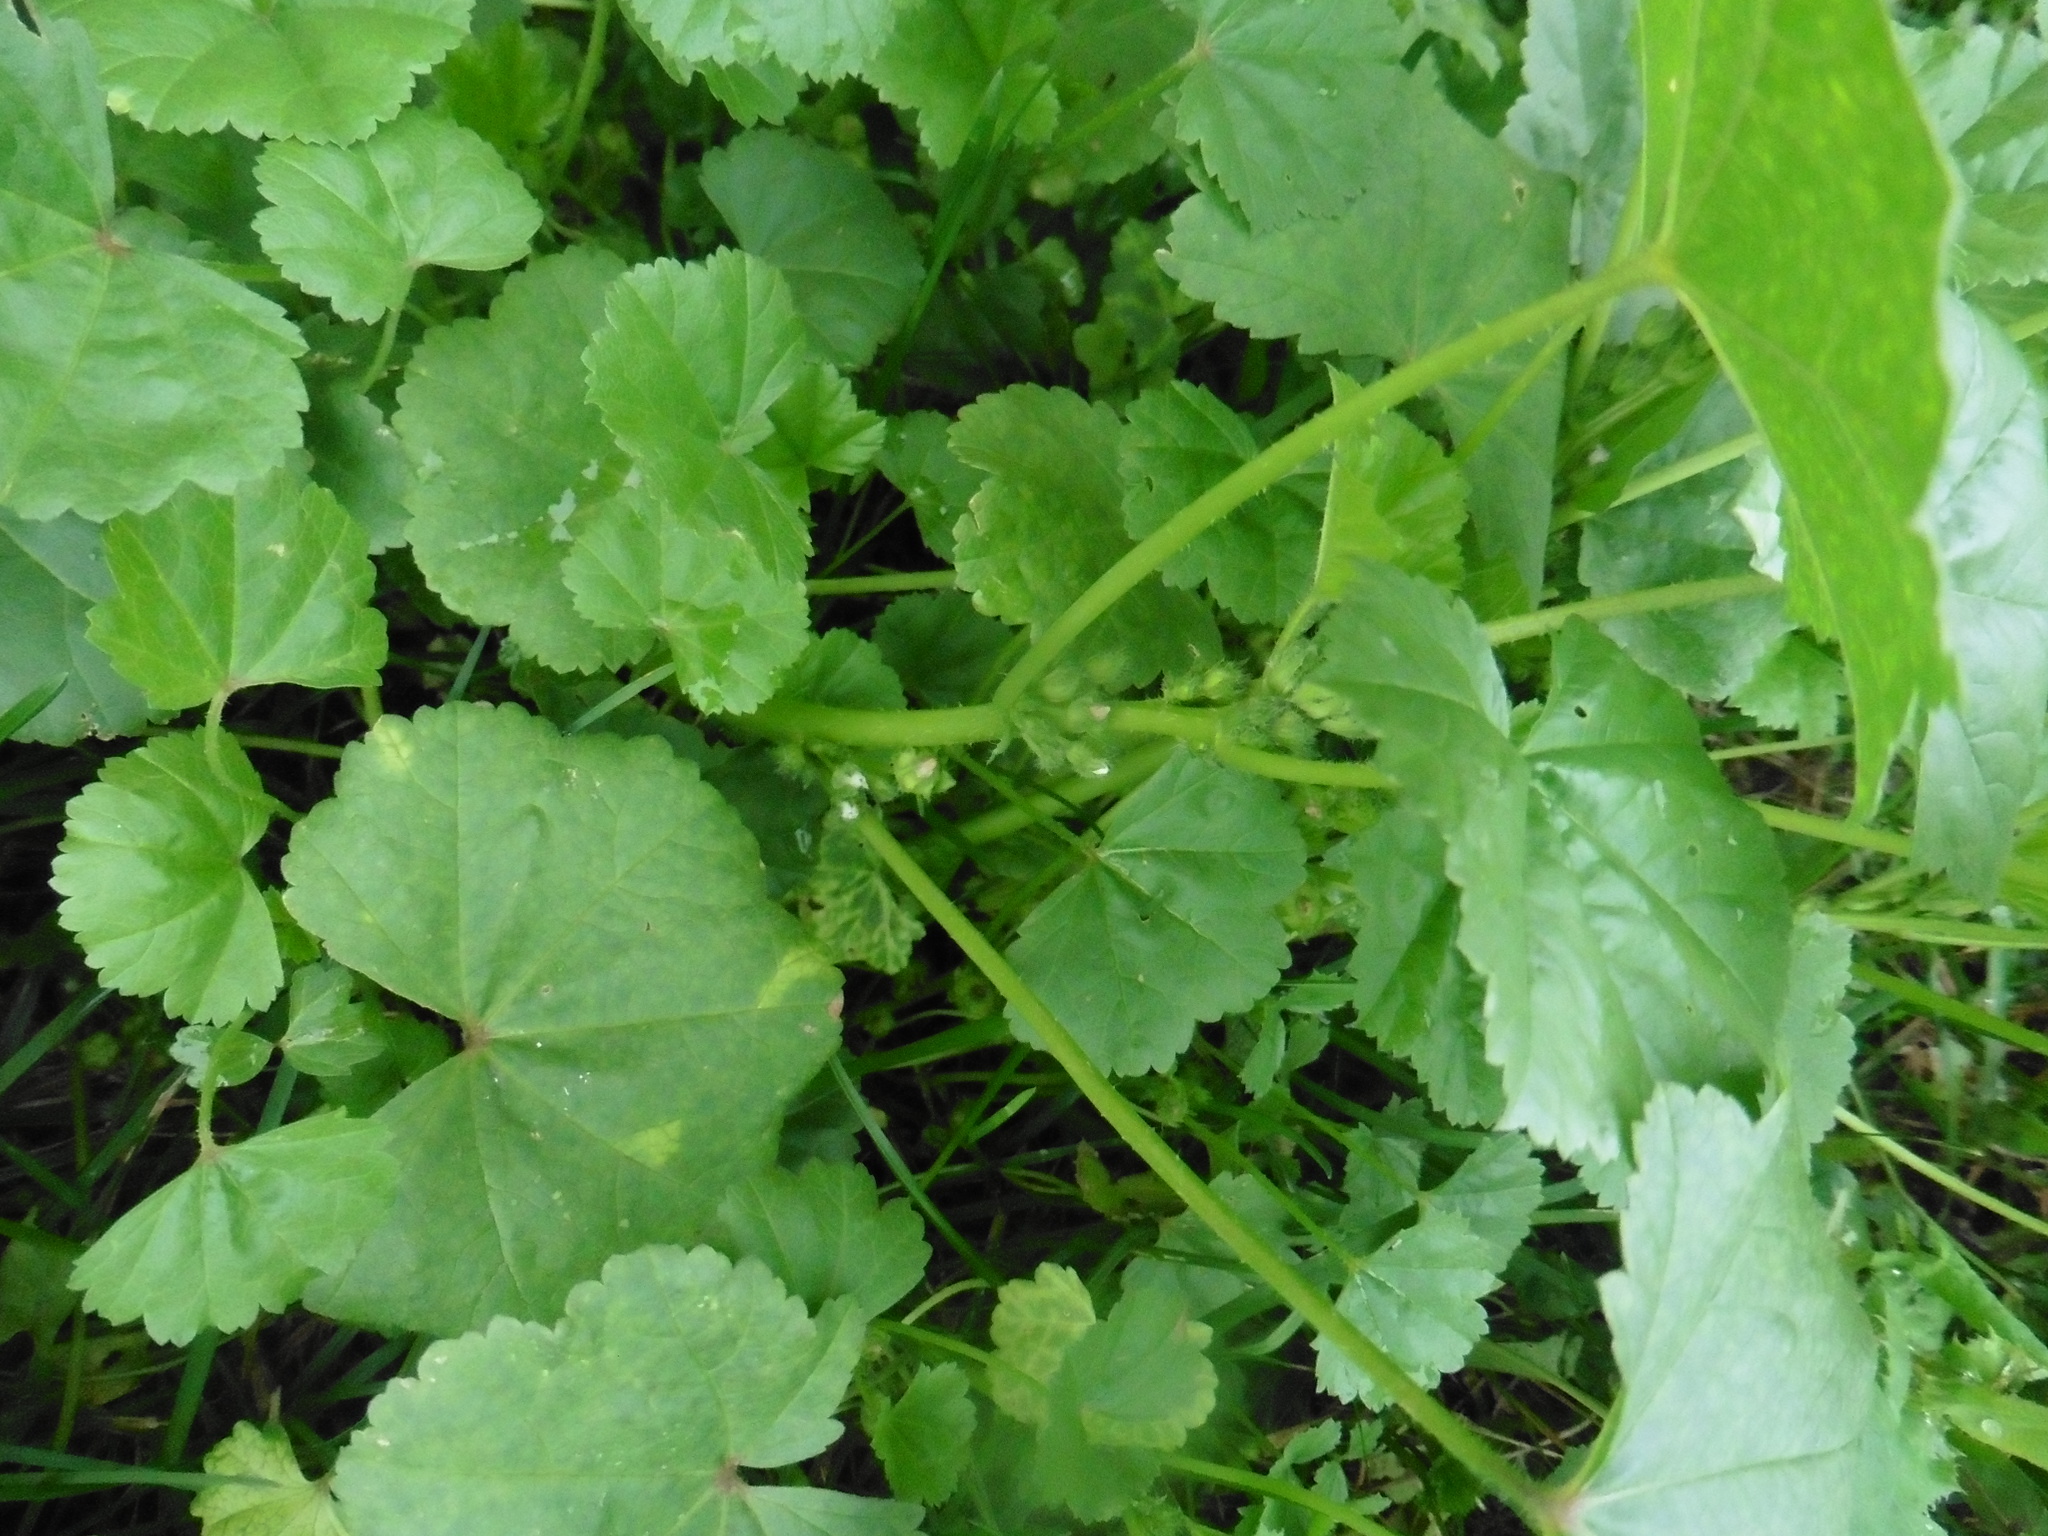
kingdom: Plantae
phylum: Tracheophyta
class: Magnoliopsida
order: Malvales
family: Malvaceae
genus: Malva
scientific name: Malva pusilla
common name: Small mallow
